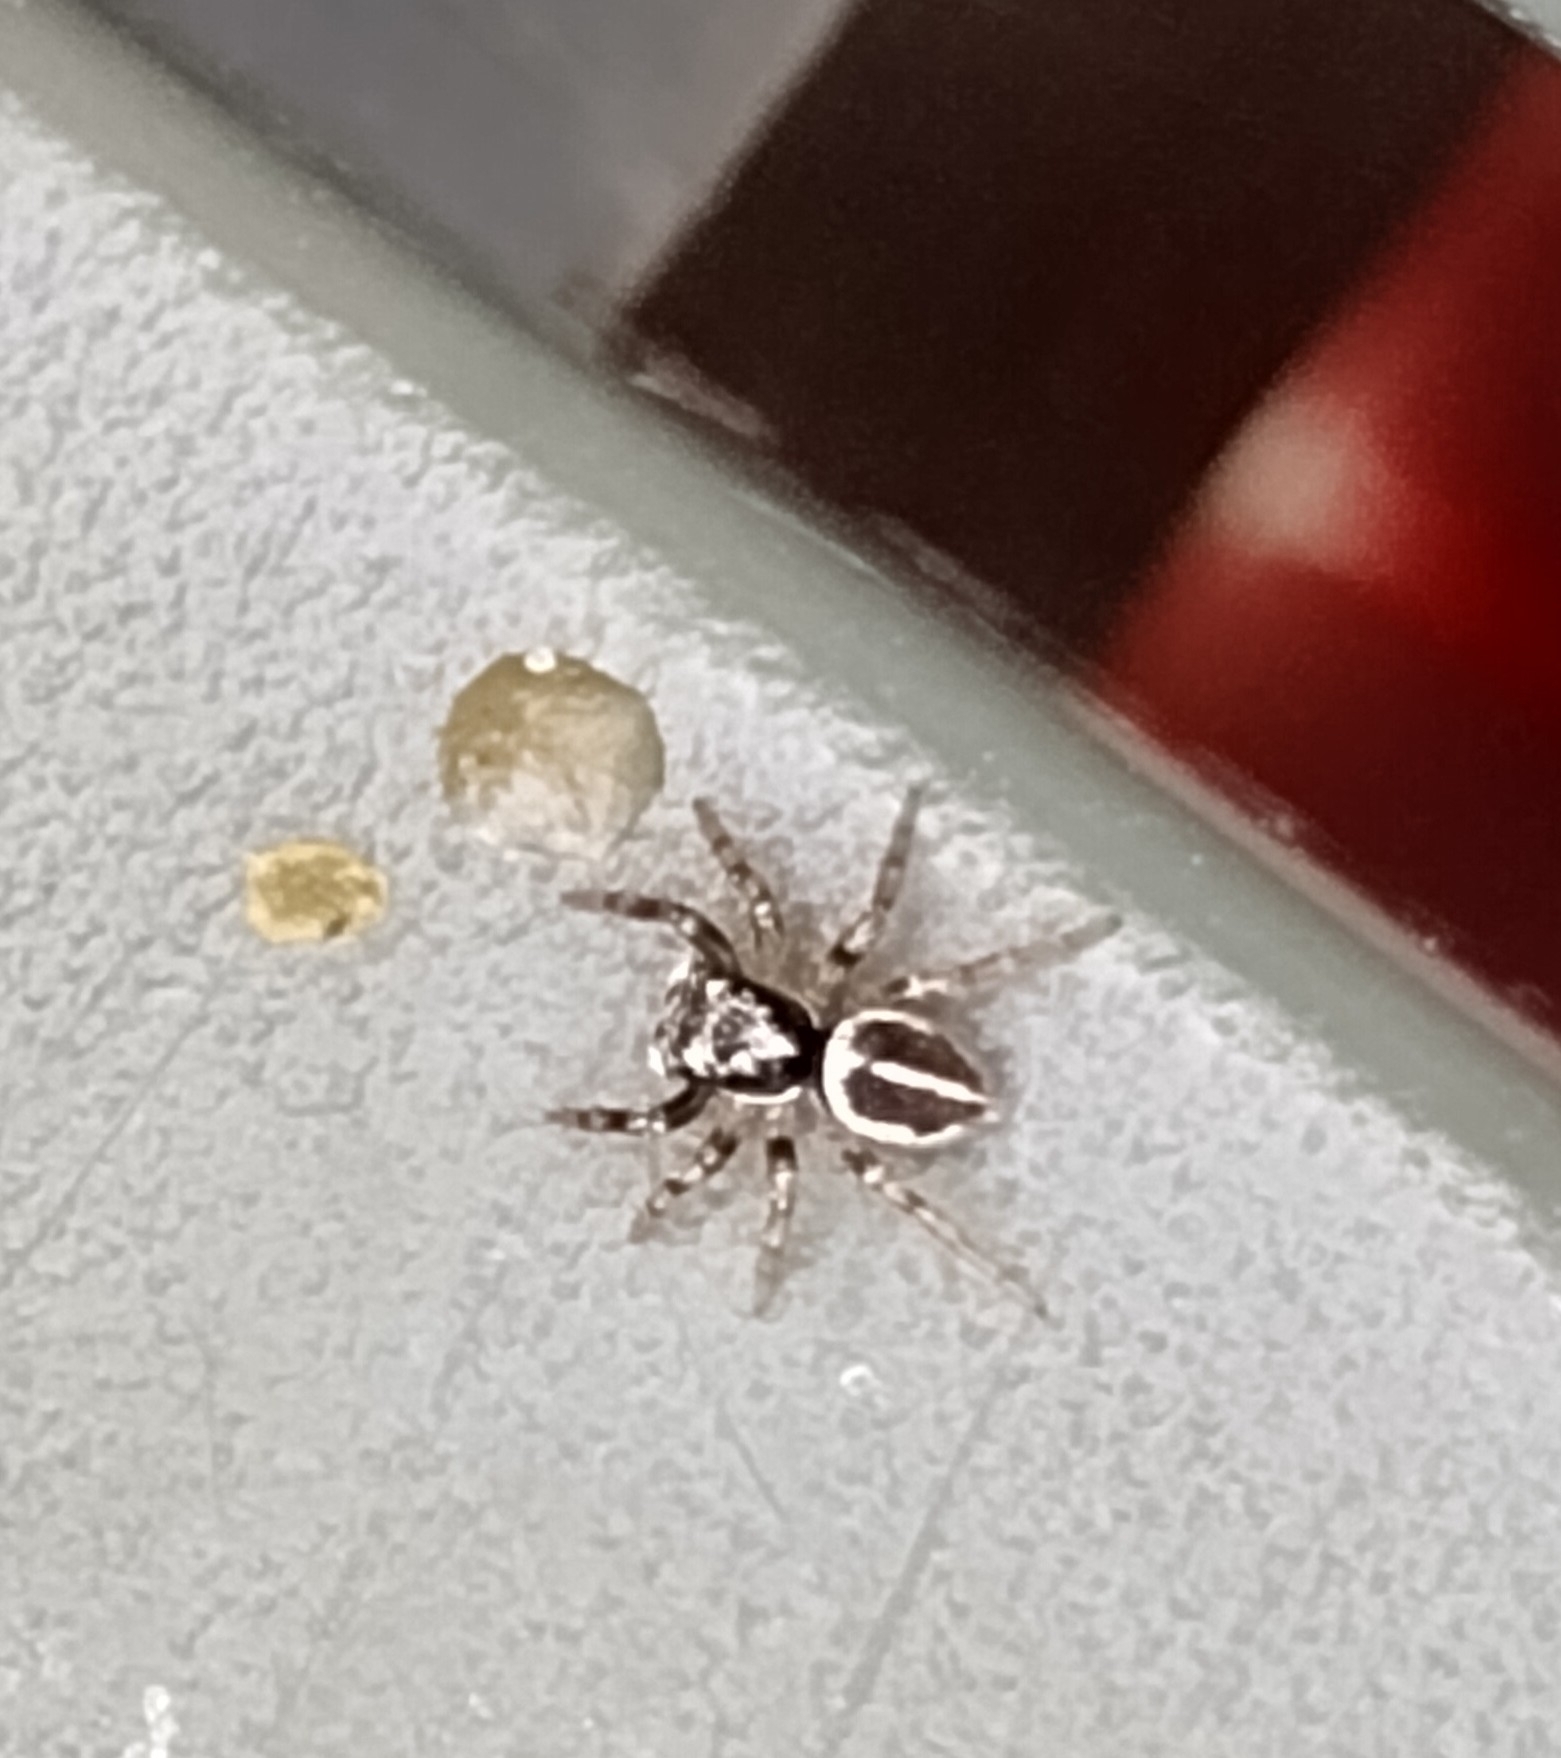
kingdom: Animalia
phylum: Arthropoda
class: Arachnida
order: Araneae
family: Salticidae
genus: Anasaitis
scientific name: Anasaitis canosa
